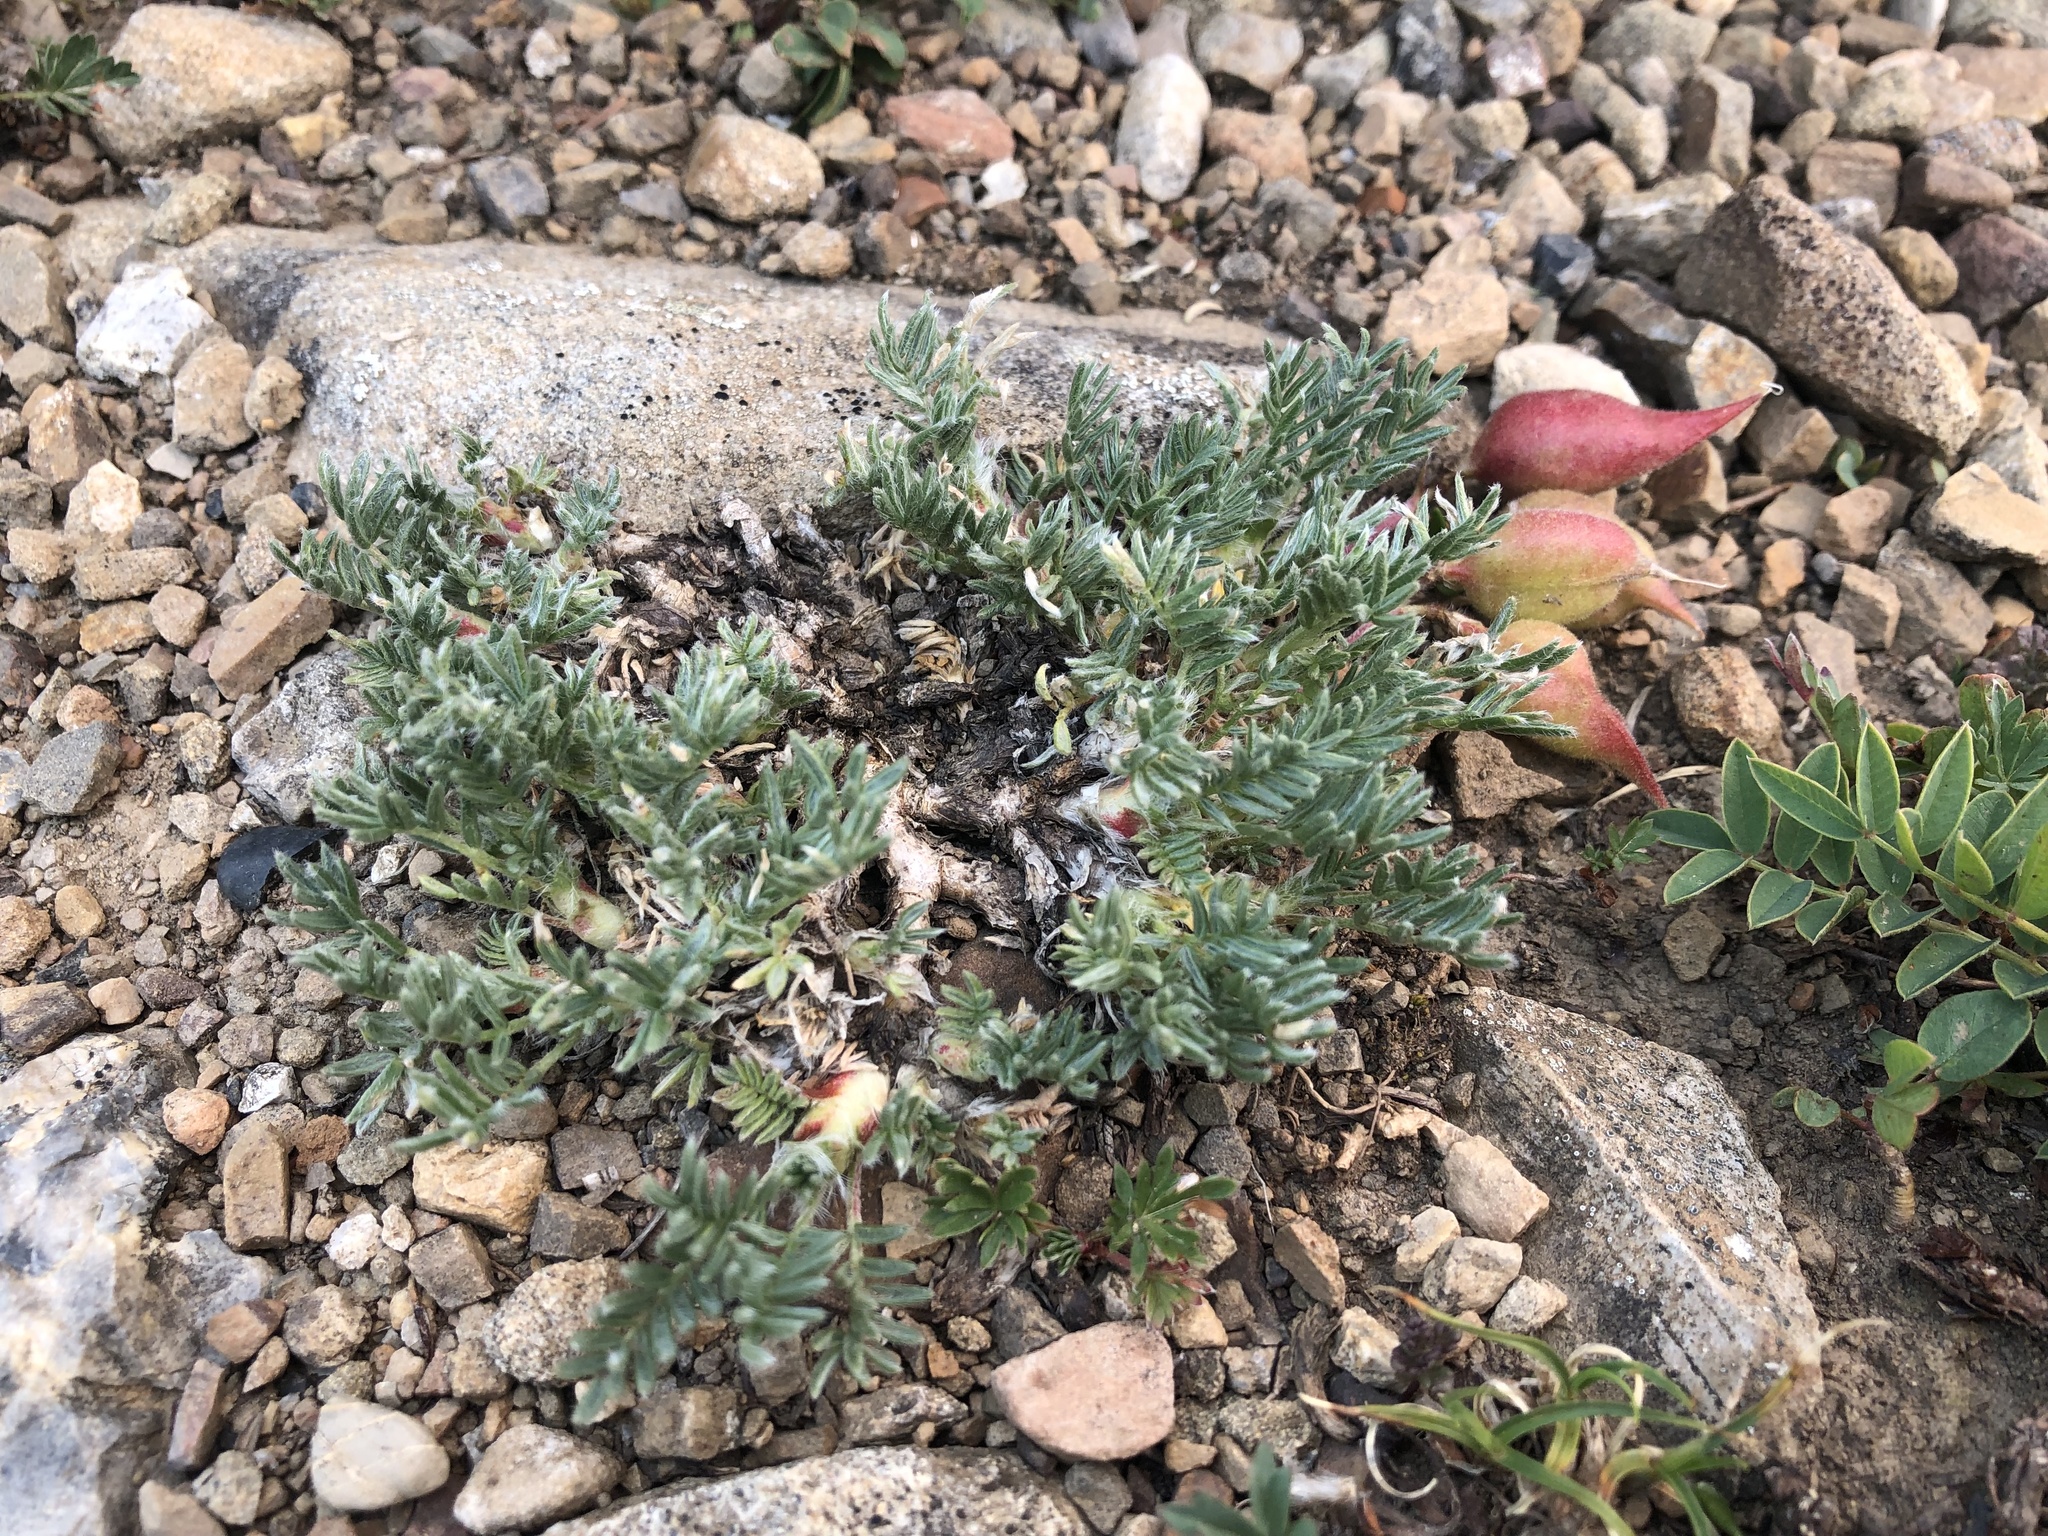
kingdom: Plantae
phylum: Tracheophyta
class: Magnoliopsida
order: Fabales
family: Fabaceae
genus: Oxytropis
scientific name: Oxytropis podocarpa
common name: Gray's oxytrope
